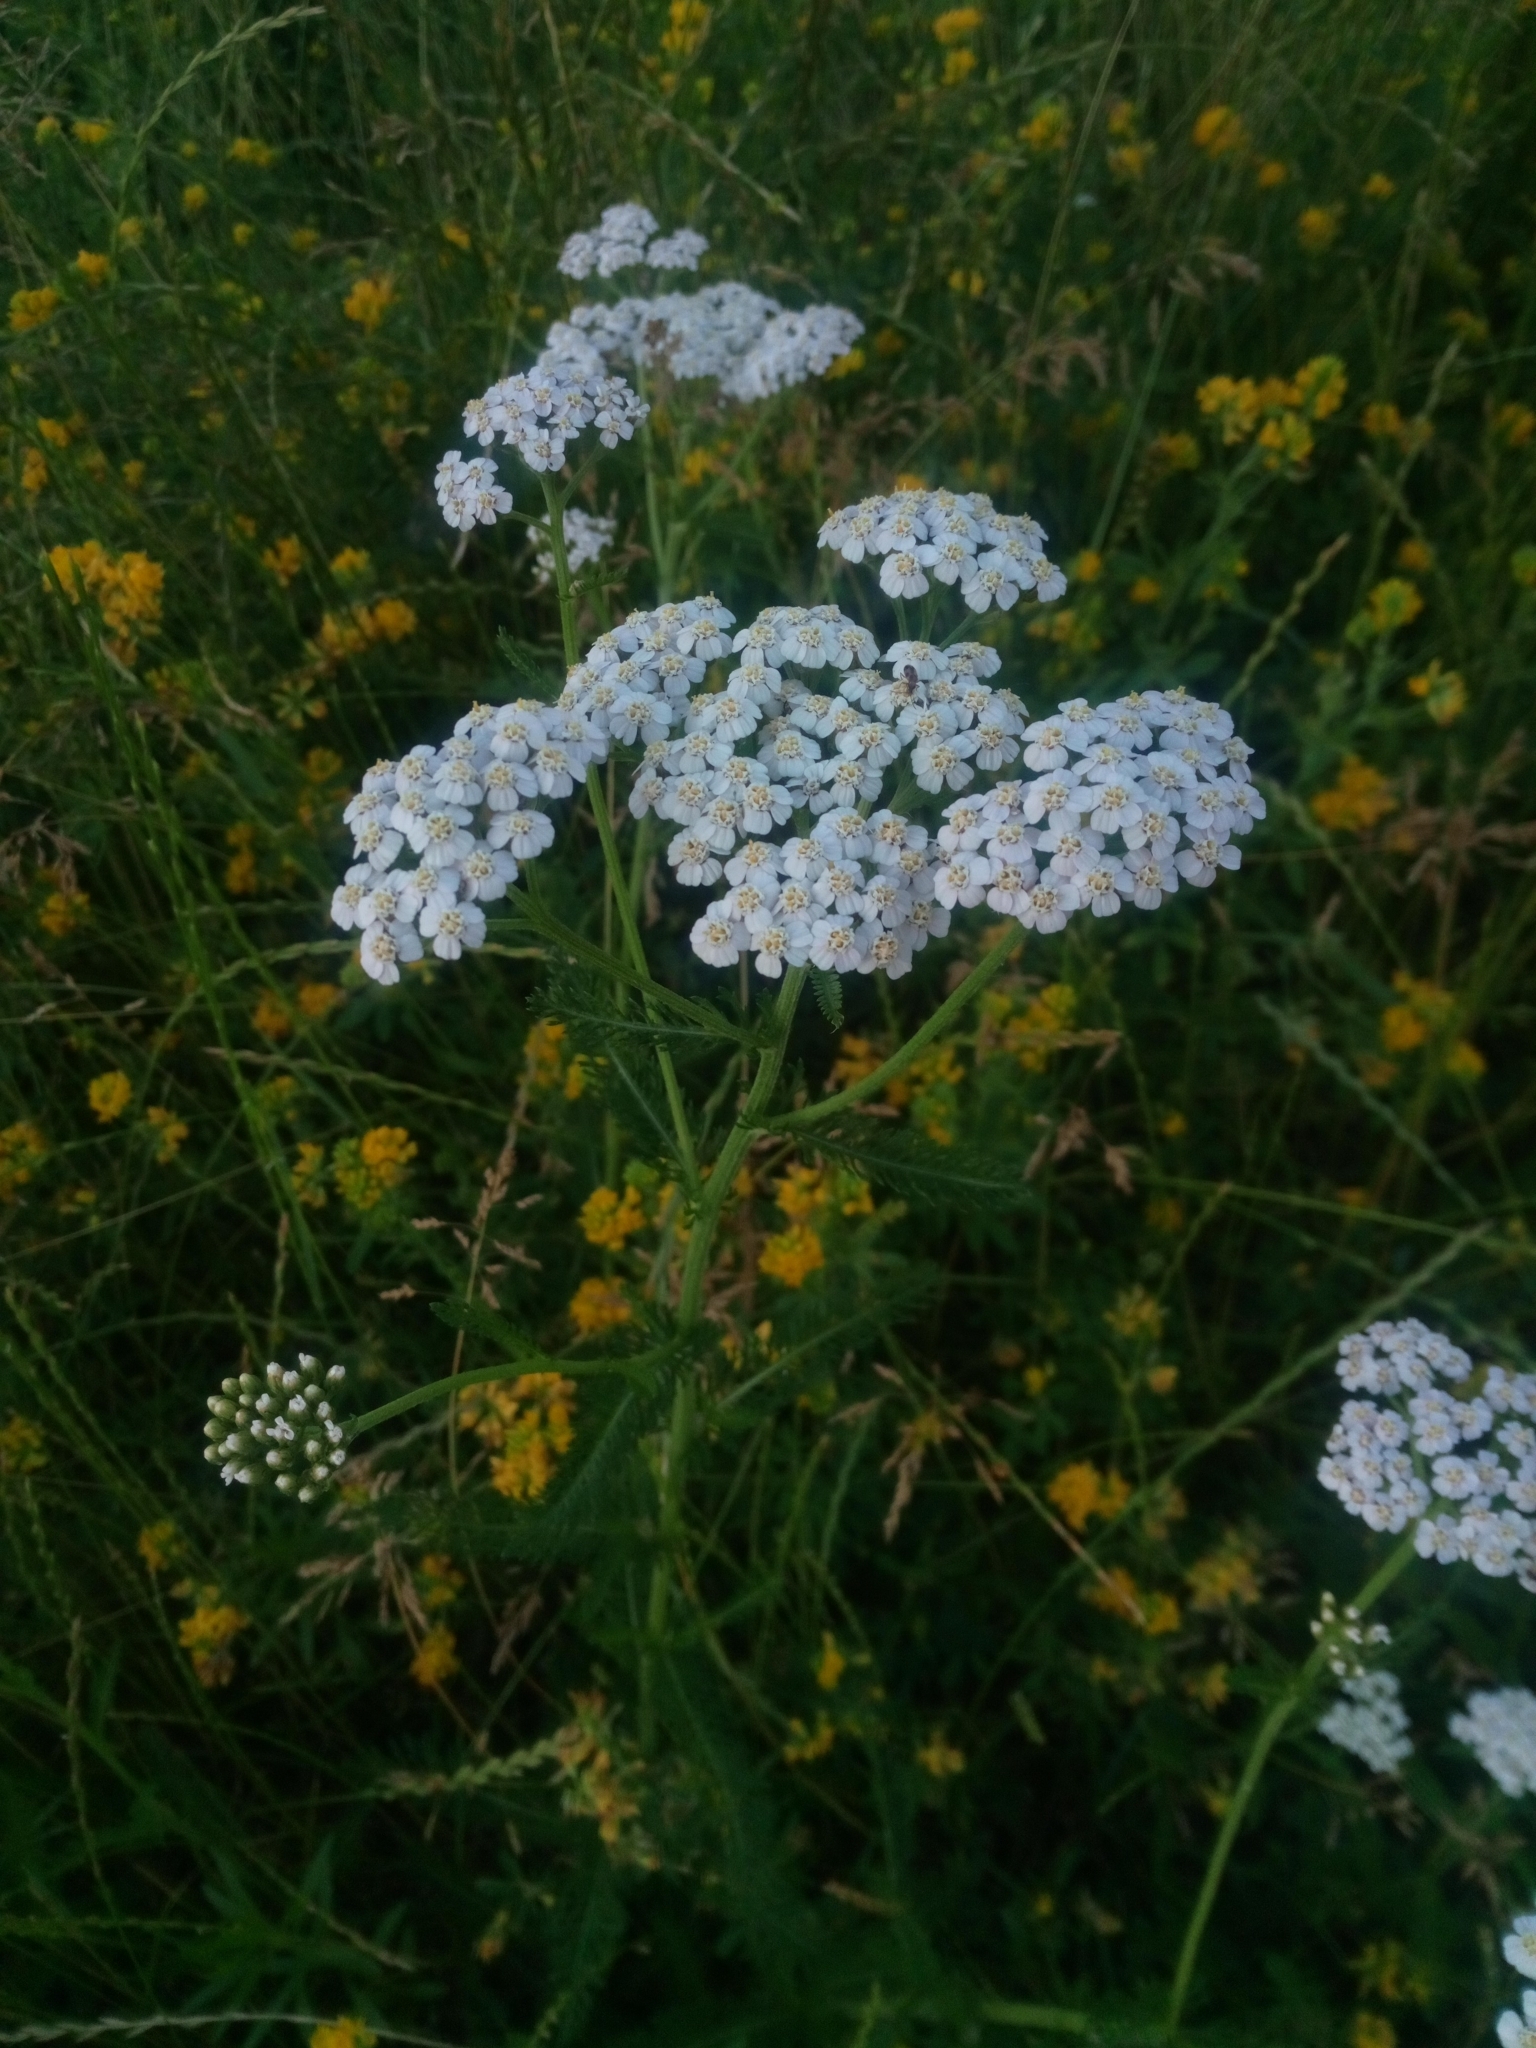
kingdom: Plantae
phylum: Tracheophyta
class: Magnoliopsida
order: Asterales
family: Asteraceae
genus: Achillea
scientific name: Achillea millefolium
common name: Yarrow
